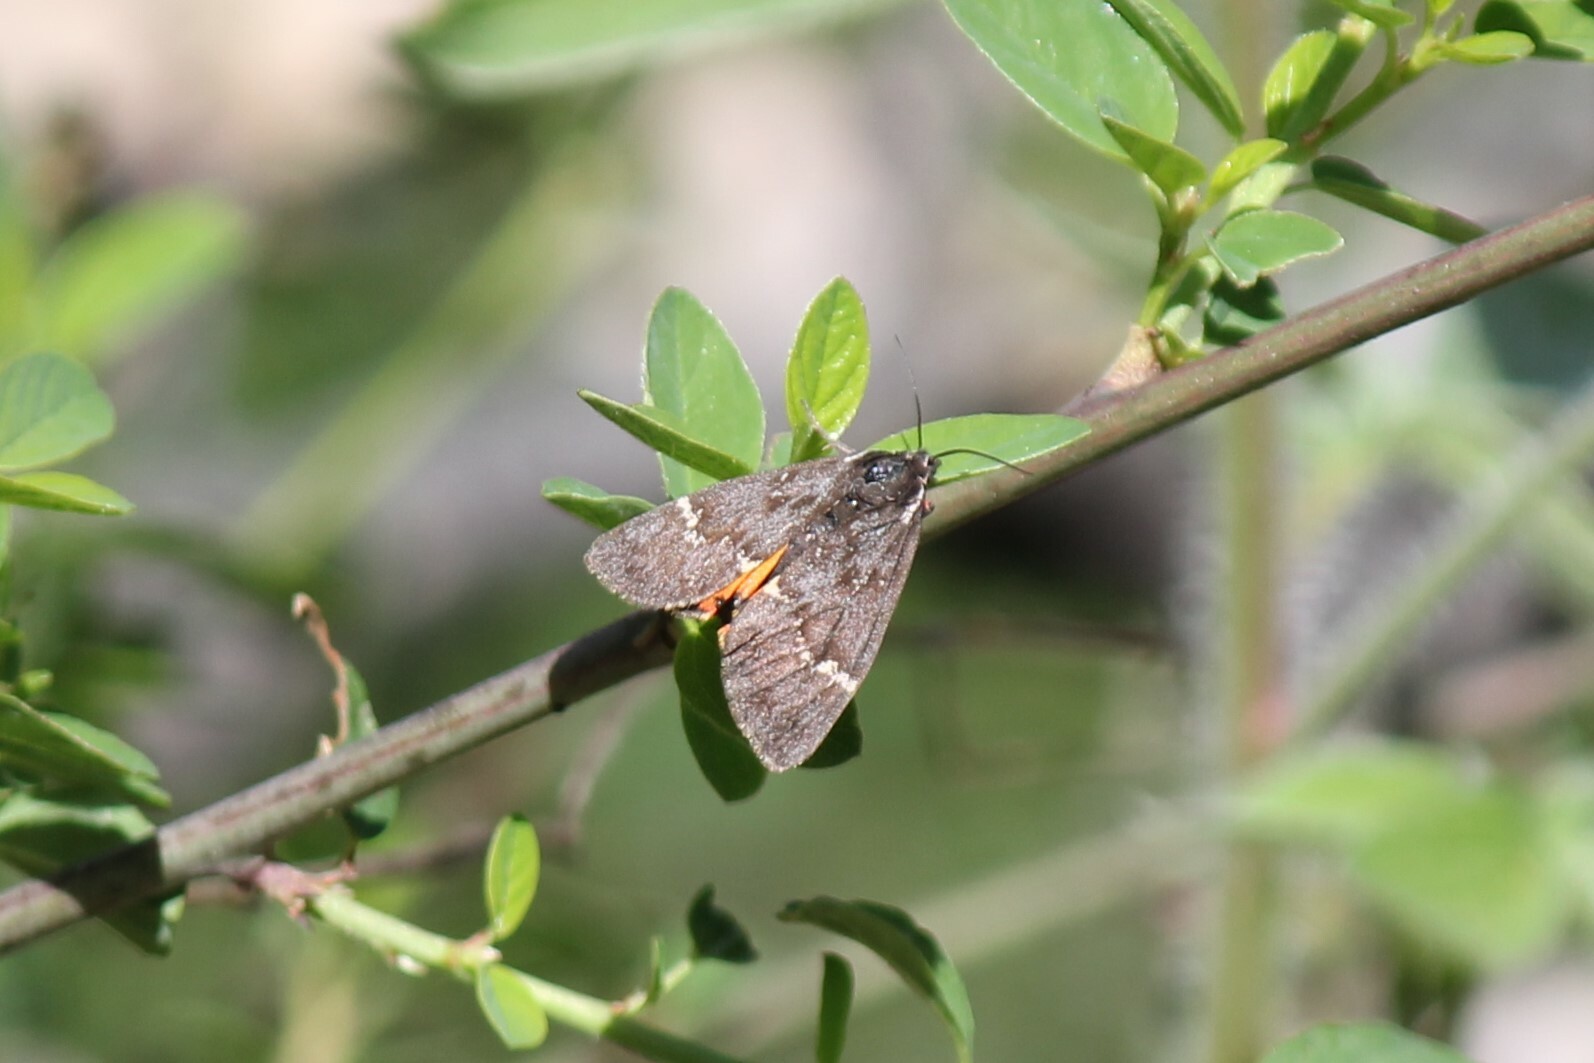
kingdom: Animalia
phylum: Arthropoda
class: Insecta
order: Lepidoptera
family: Erebidae
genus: Leptarctia
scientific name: Leptarctia californiae
